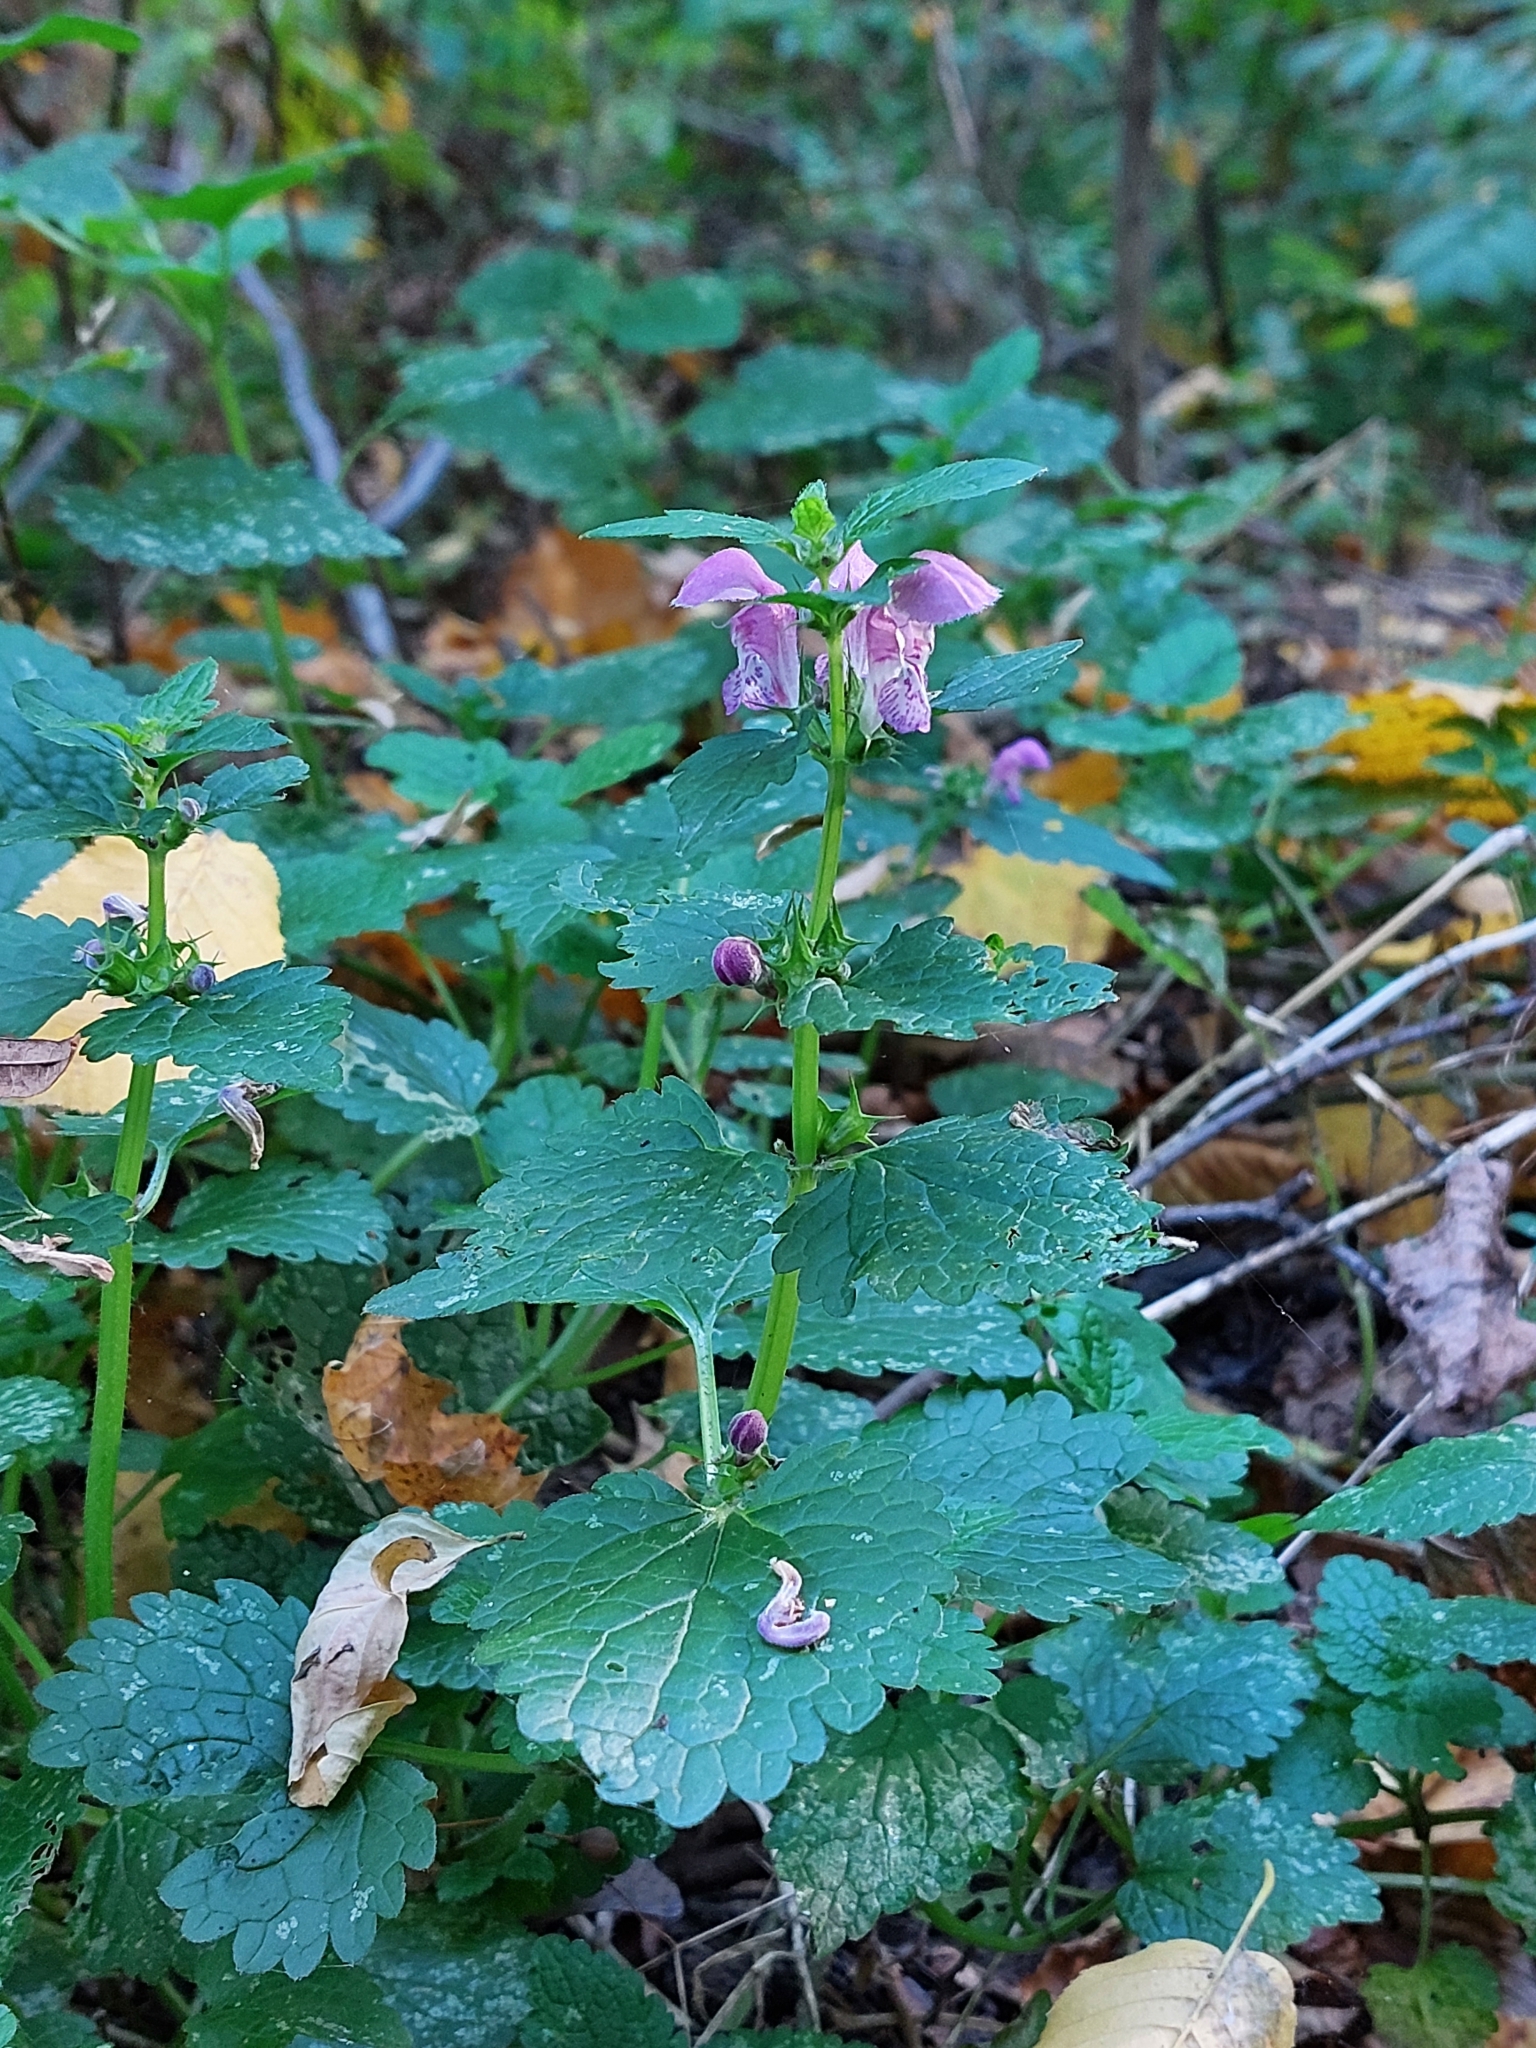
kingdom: Plantae
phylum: Tracheophyta
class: Magnoliopsida
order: Lamiales
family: Lamiaceae
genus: Lamium
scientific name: Lamium maculatum
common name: Spotted dead-nettle
